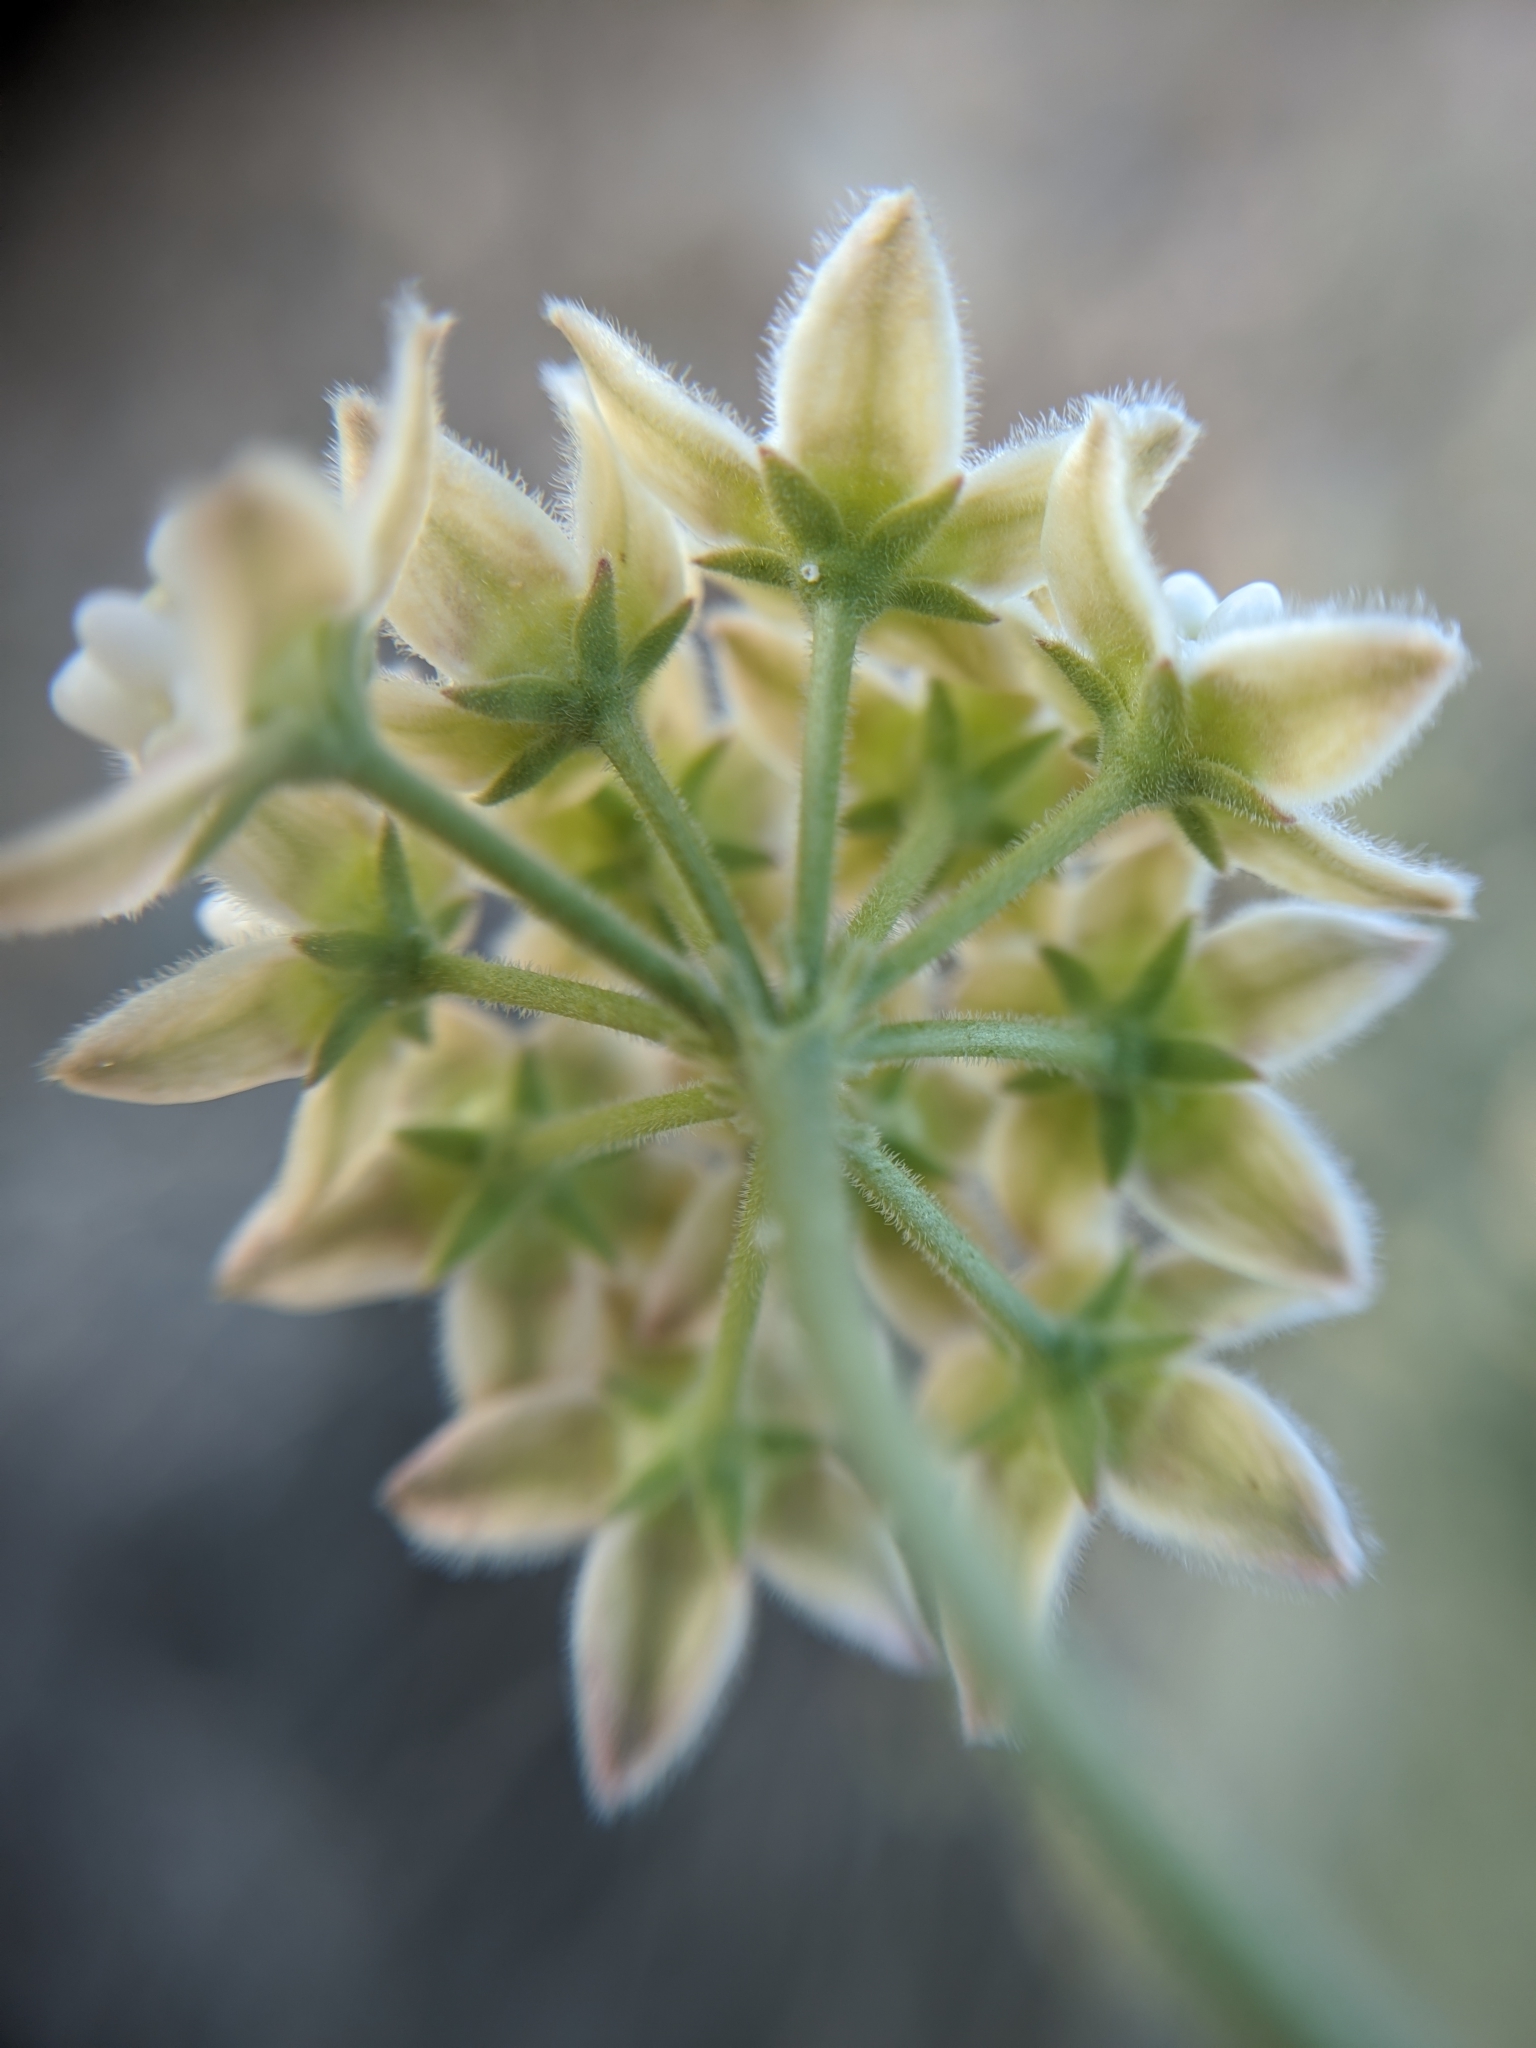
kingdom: Plantae
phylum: Tracheophyta
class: Magnoliopsida
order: Gentianales
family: Apocynaceae
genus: Funastrum
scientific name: Funastrum hirtellum
